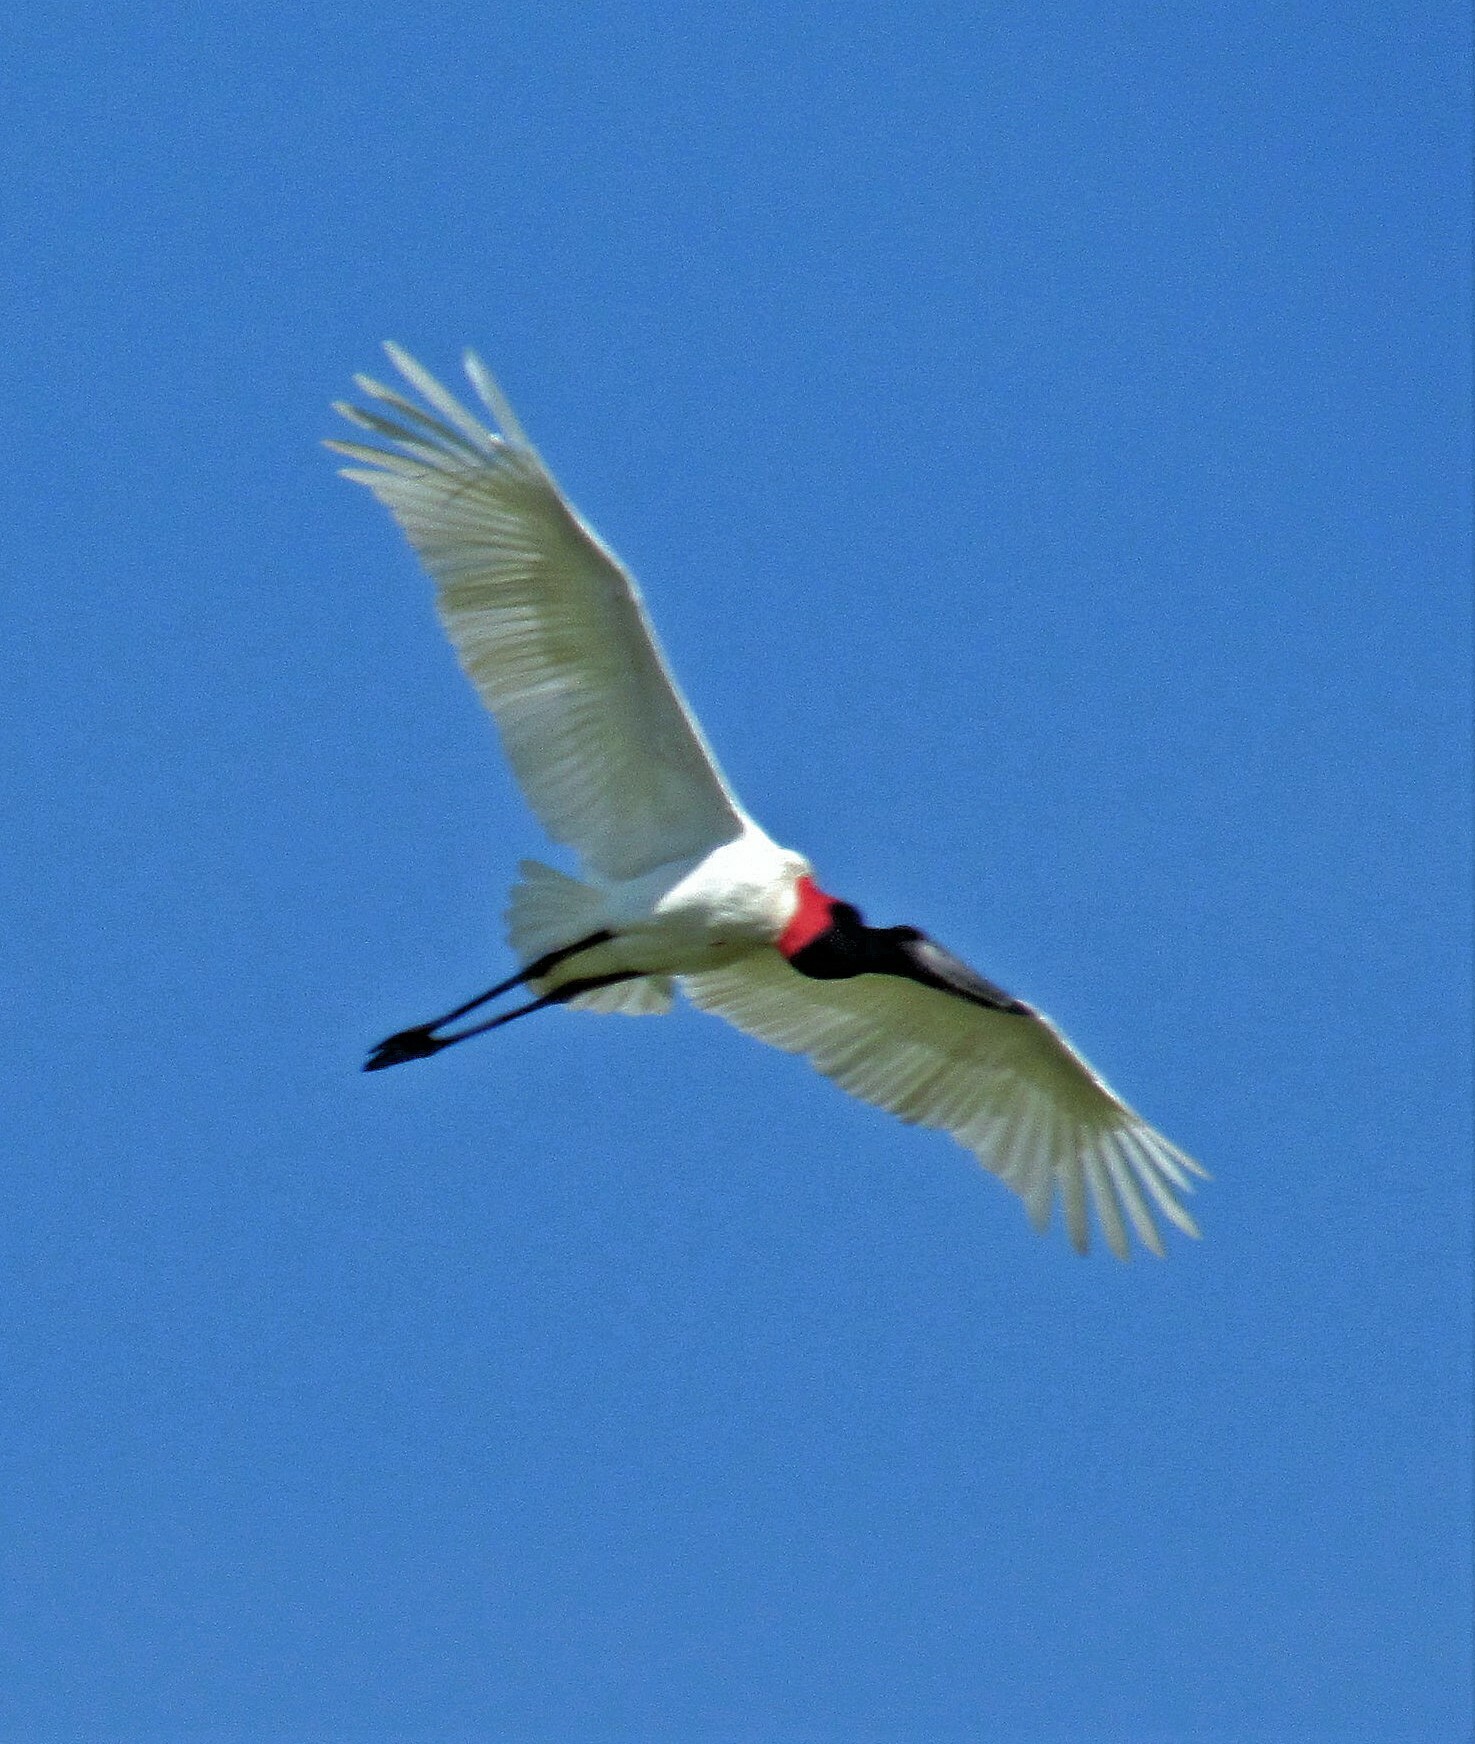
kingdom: Animalia
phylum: Chordata
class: Aves
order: Ciconiiformes
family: Ciconiidae
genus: Jabiru
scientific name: Jabiru mycteria
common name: Jabiru
